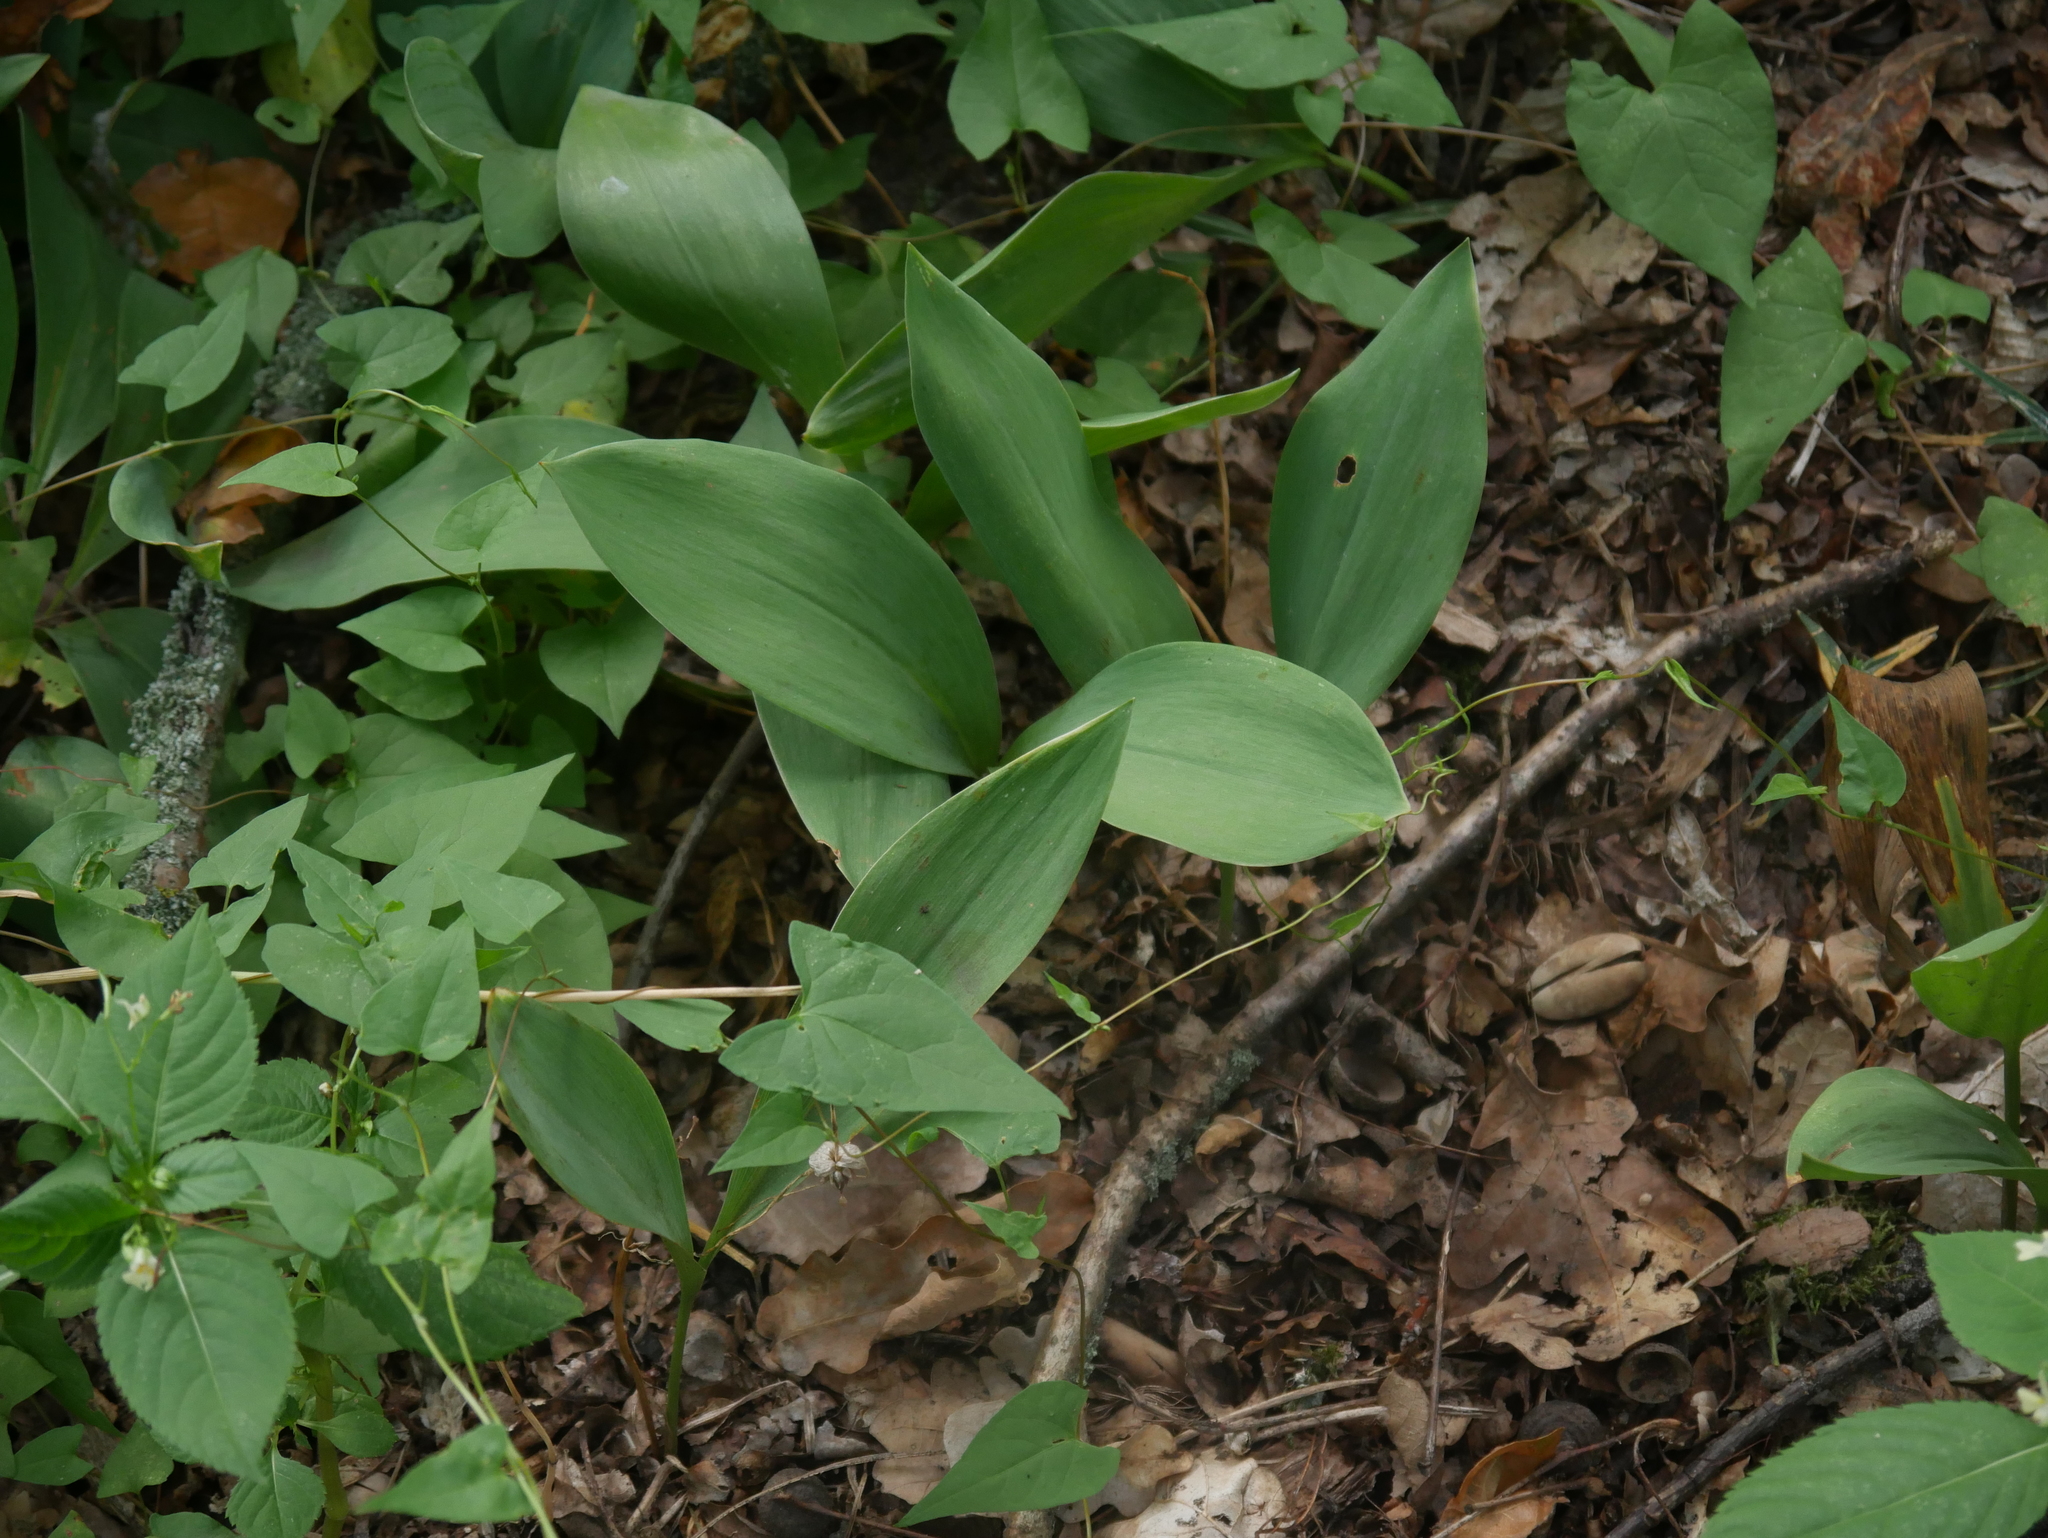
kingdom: Plantae
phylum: Tracheophyta
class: Liliopsida
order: Asparagales
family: Asparagaceae
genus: Convallaria
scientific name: Convallaria majalis
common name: Lily-of-the-valley
